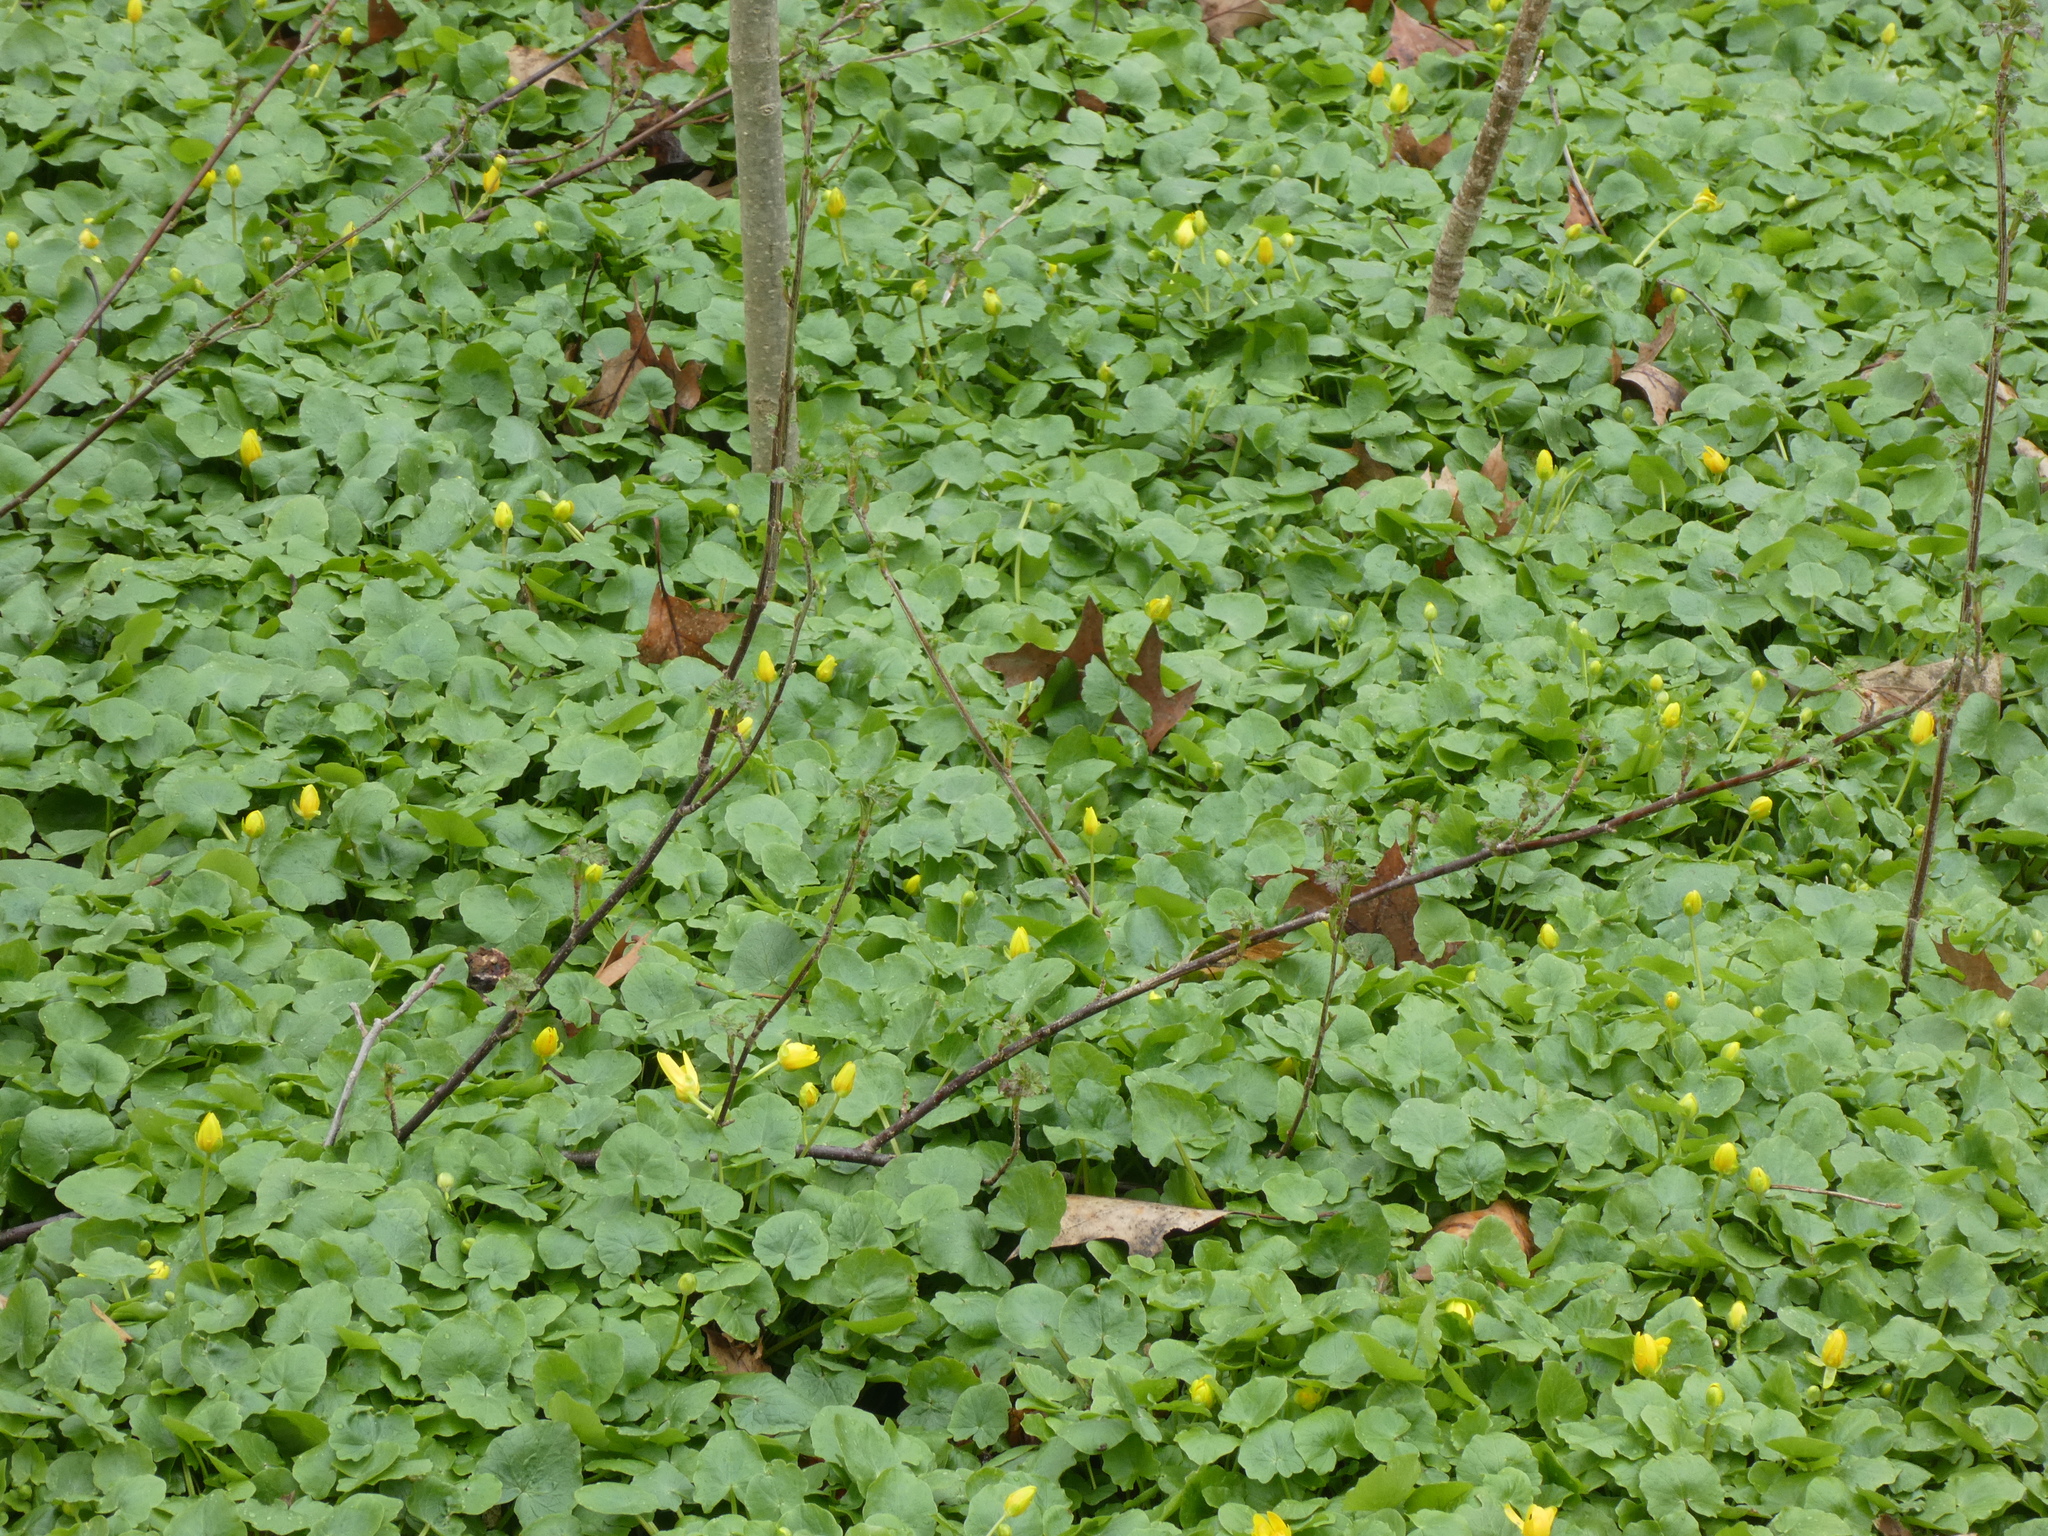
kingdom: Plantae
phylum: Tracheophyta
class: Magnoliopsida
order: Ranunculales
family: Ranunculaceae
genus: Ficaria
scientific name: Ficaria verna
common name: Lesser celandine
